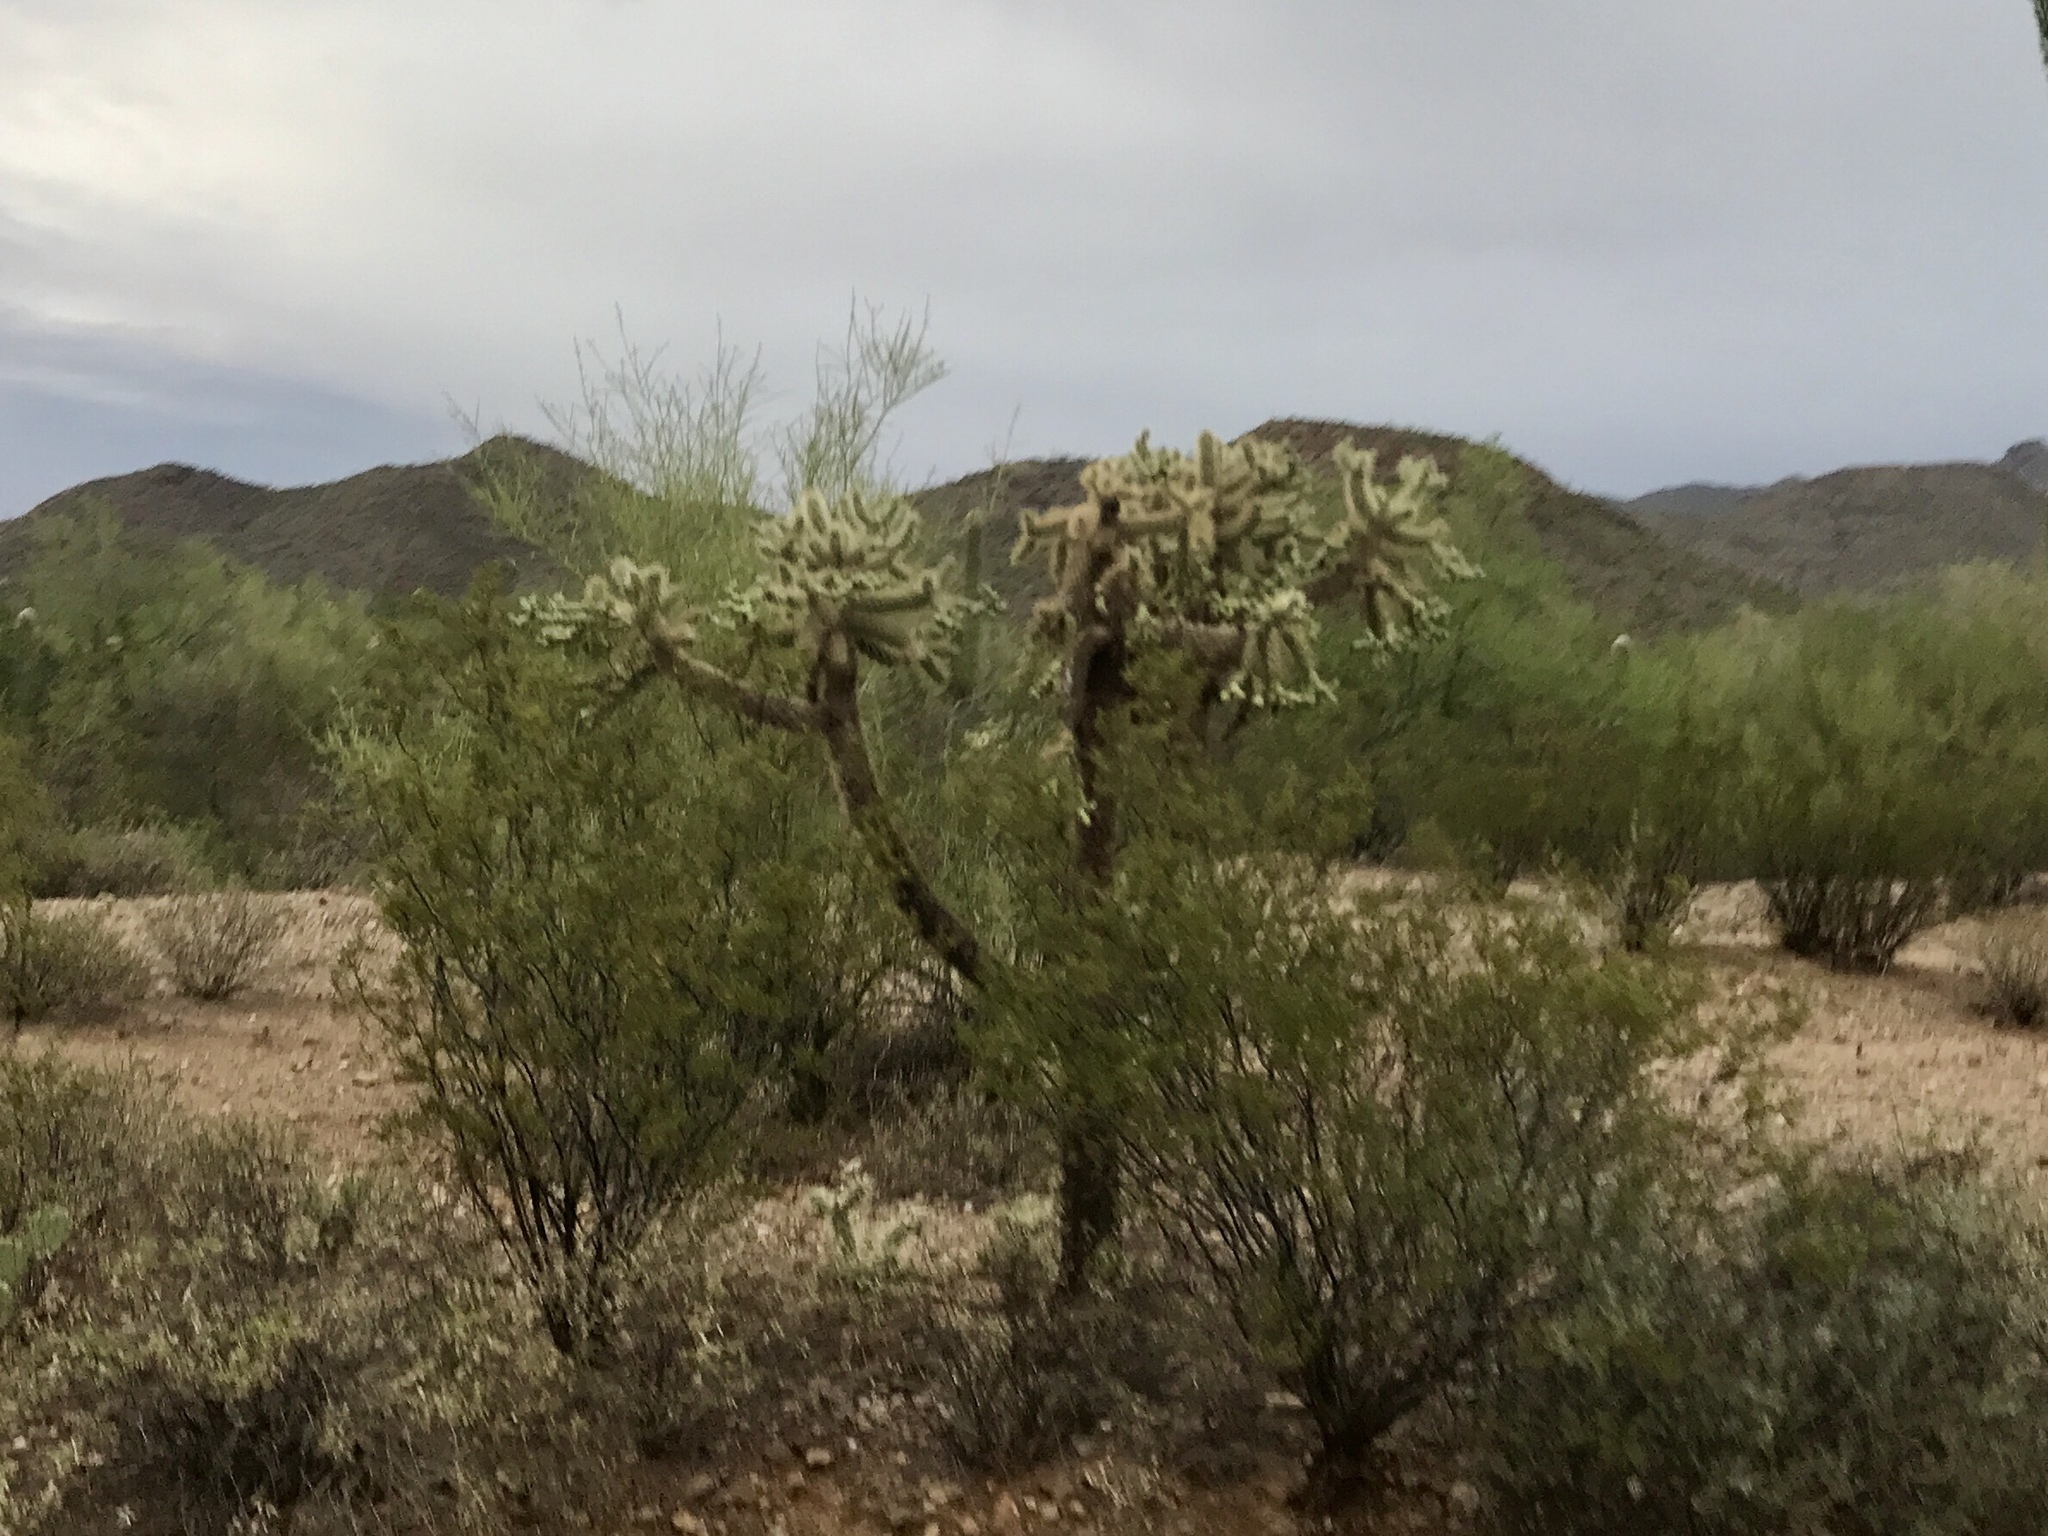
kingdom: Plantae
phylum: Tracheophyta
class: Magnoliopsida
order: Caryophyllales
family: Cactaceae
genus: Cylindropuntia
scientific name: Cylindropuntia fulgida
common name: Jumping cholla
